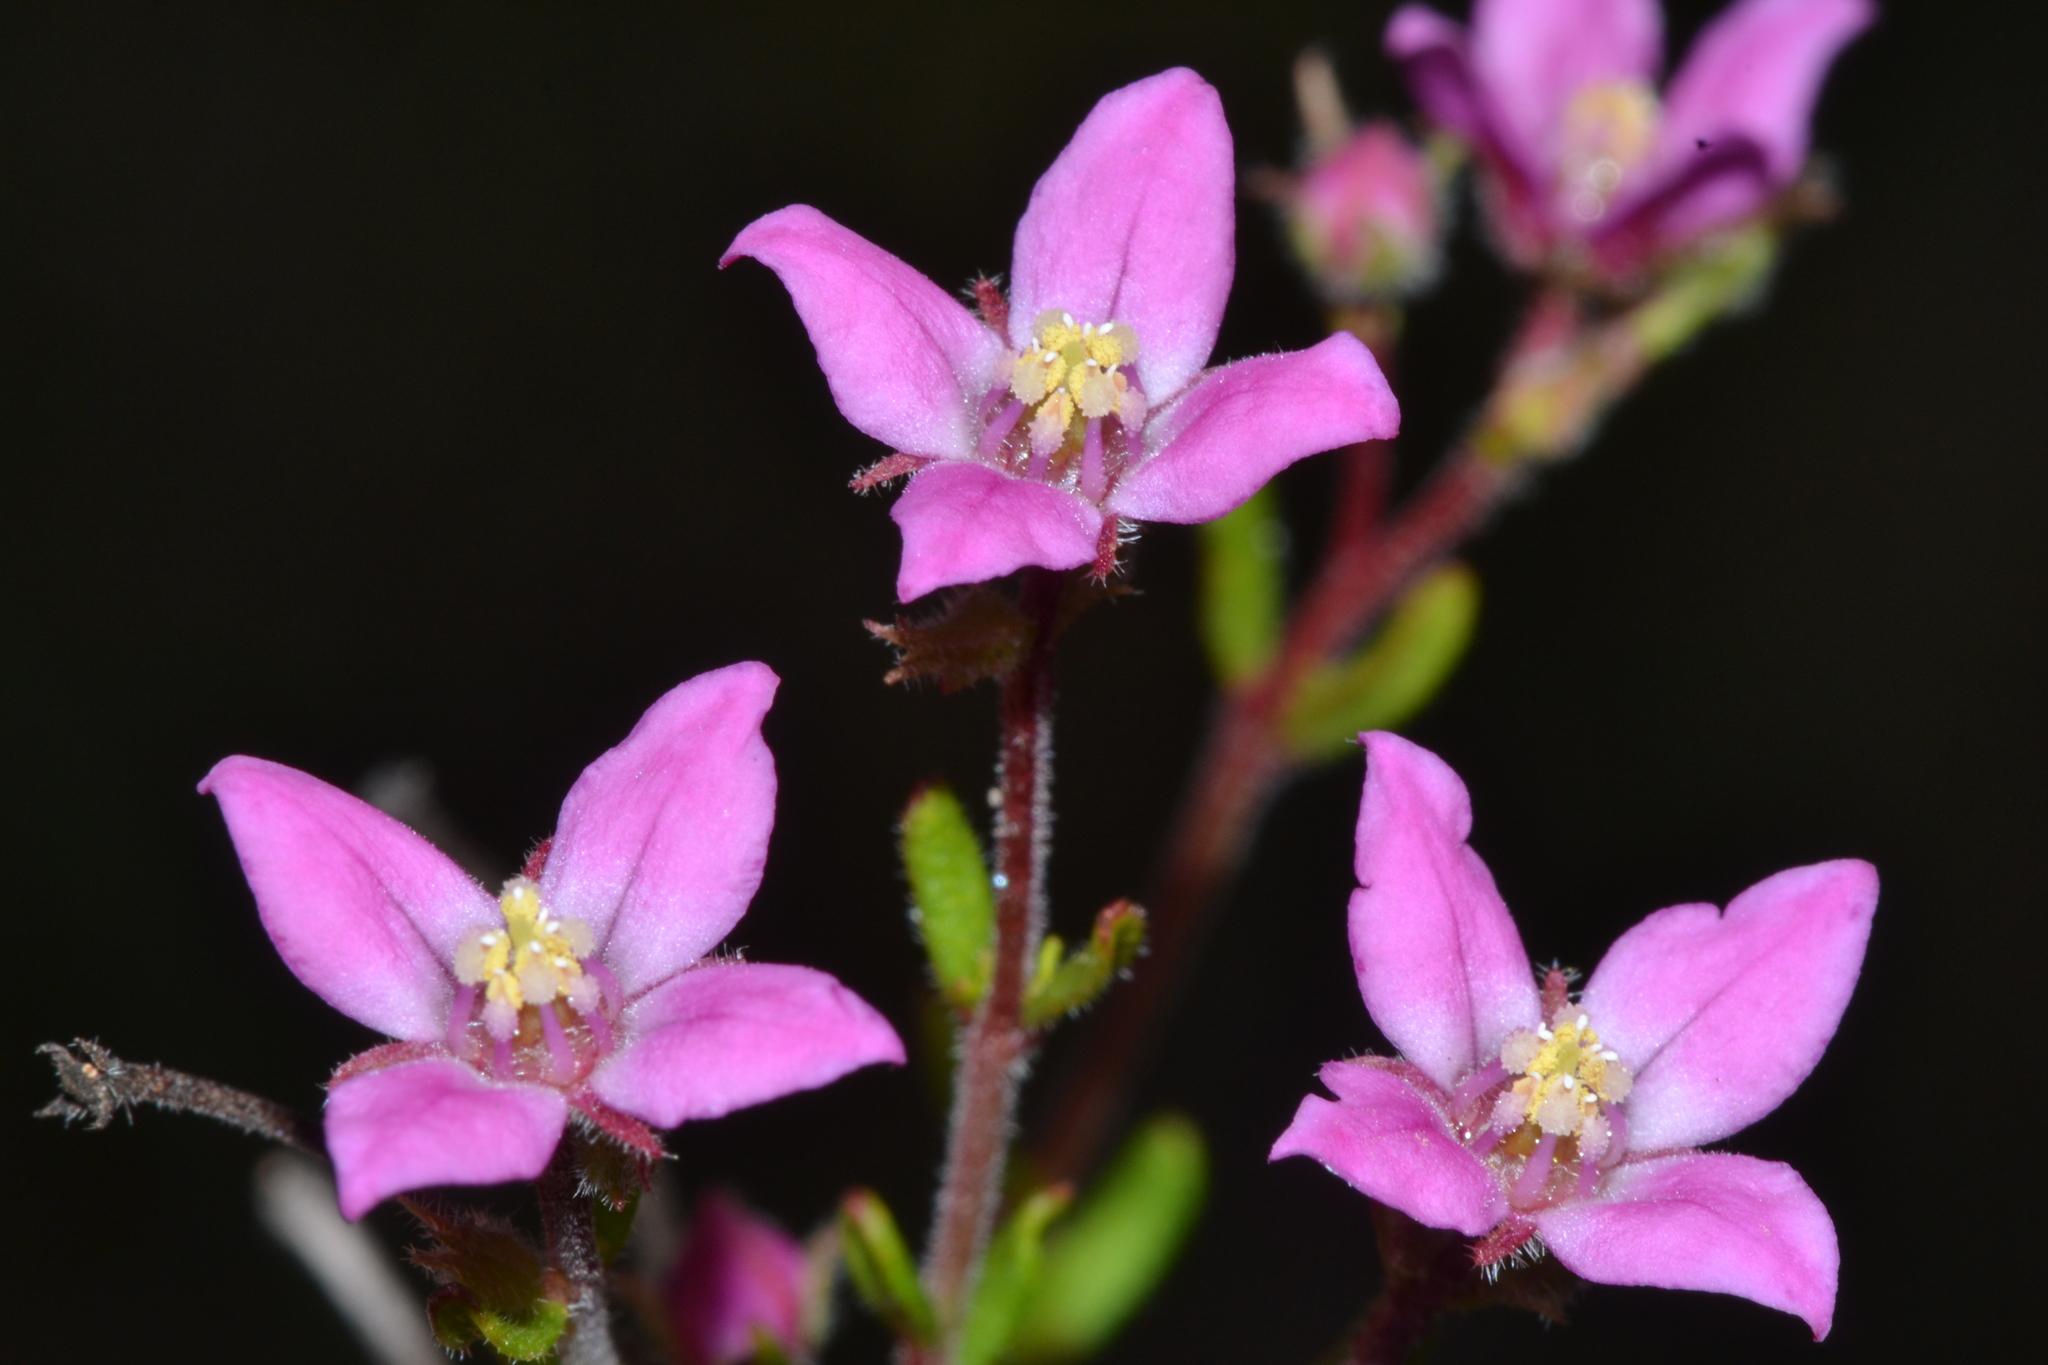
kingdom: Plantae
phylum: Tracheophyta
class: Magnoliopsida
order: Sapindales
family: Rutaceae
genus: Boronia
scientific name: Boronia scabra
